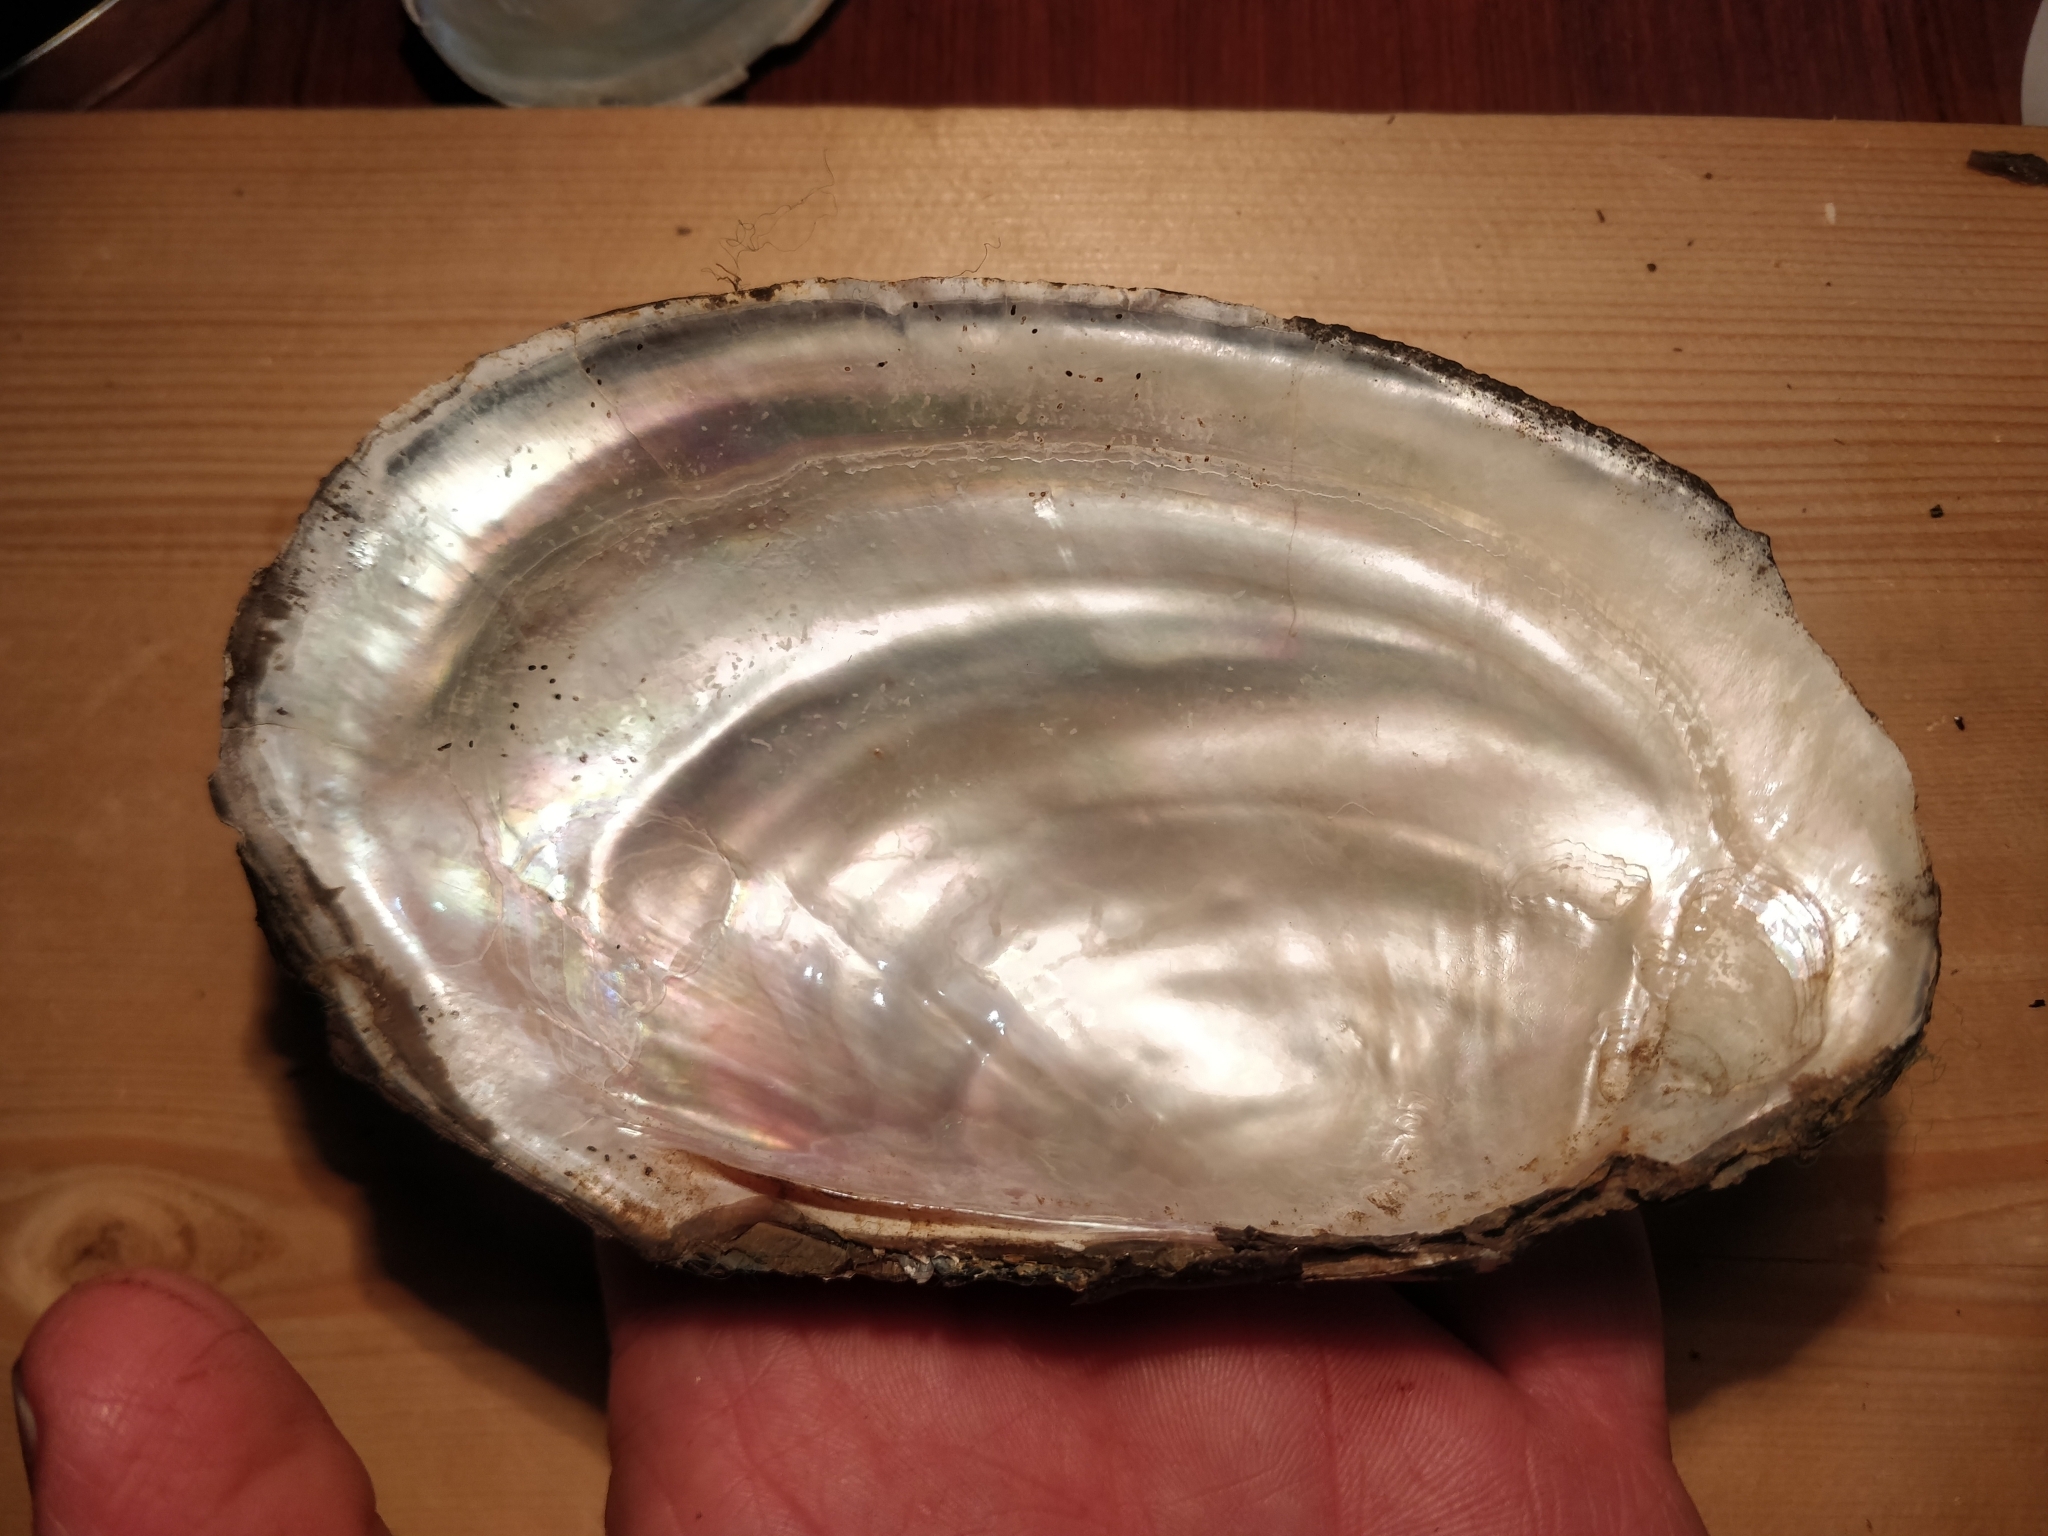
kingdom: Animalia
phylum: Mollusca
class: Bivalvia
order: Unionida
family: Unionidae
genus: Potamilus
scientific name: Potamilus fragilis
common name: Fragile papershell
